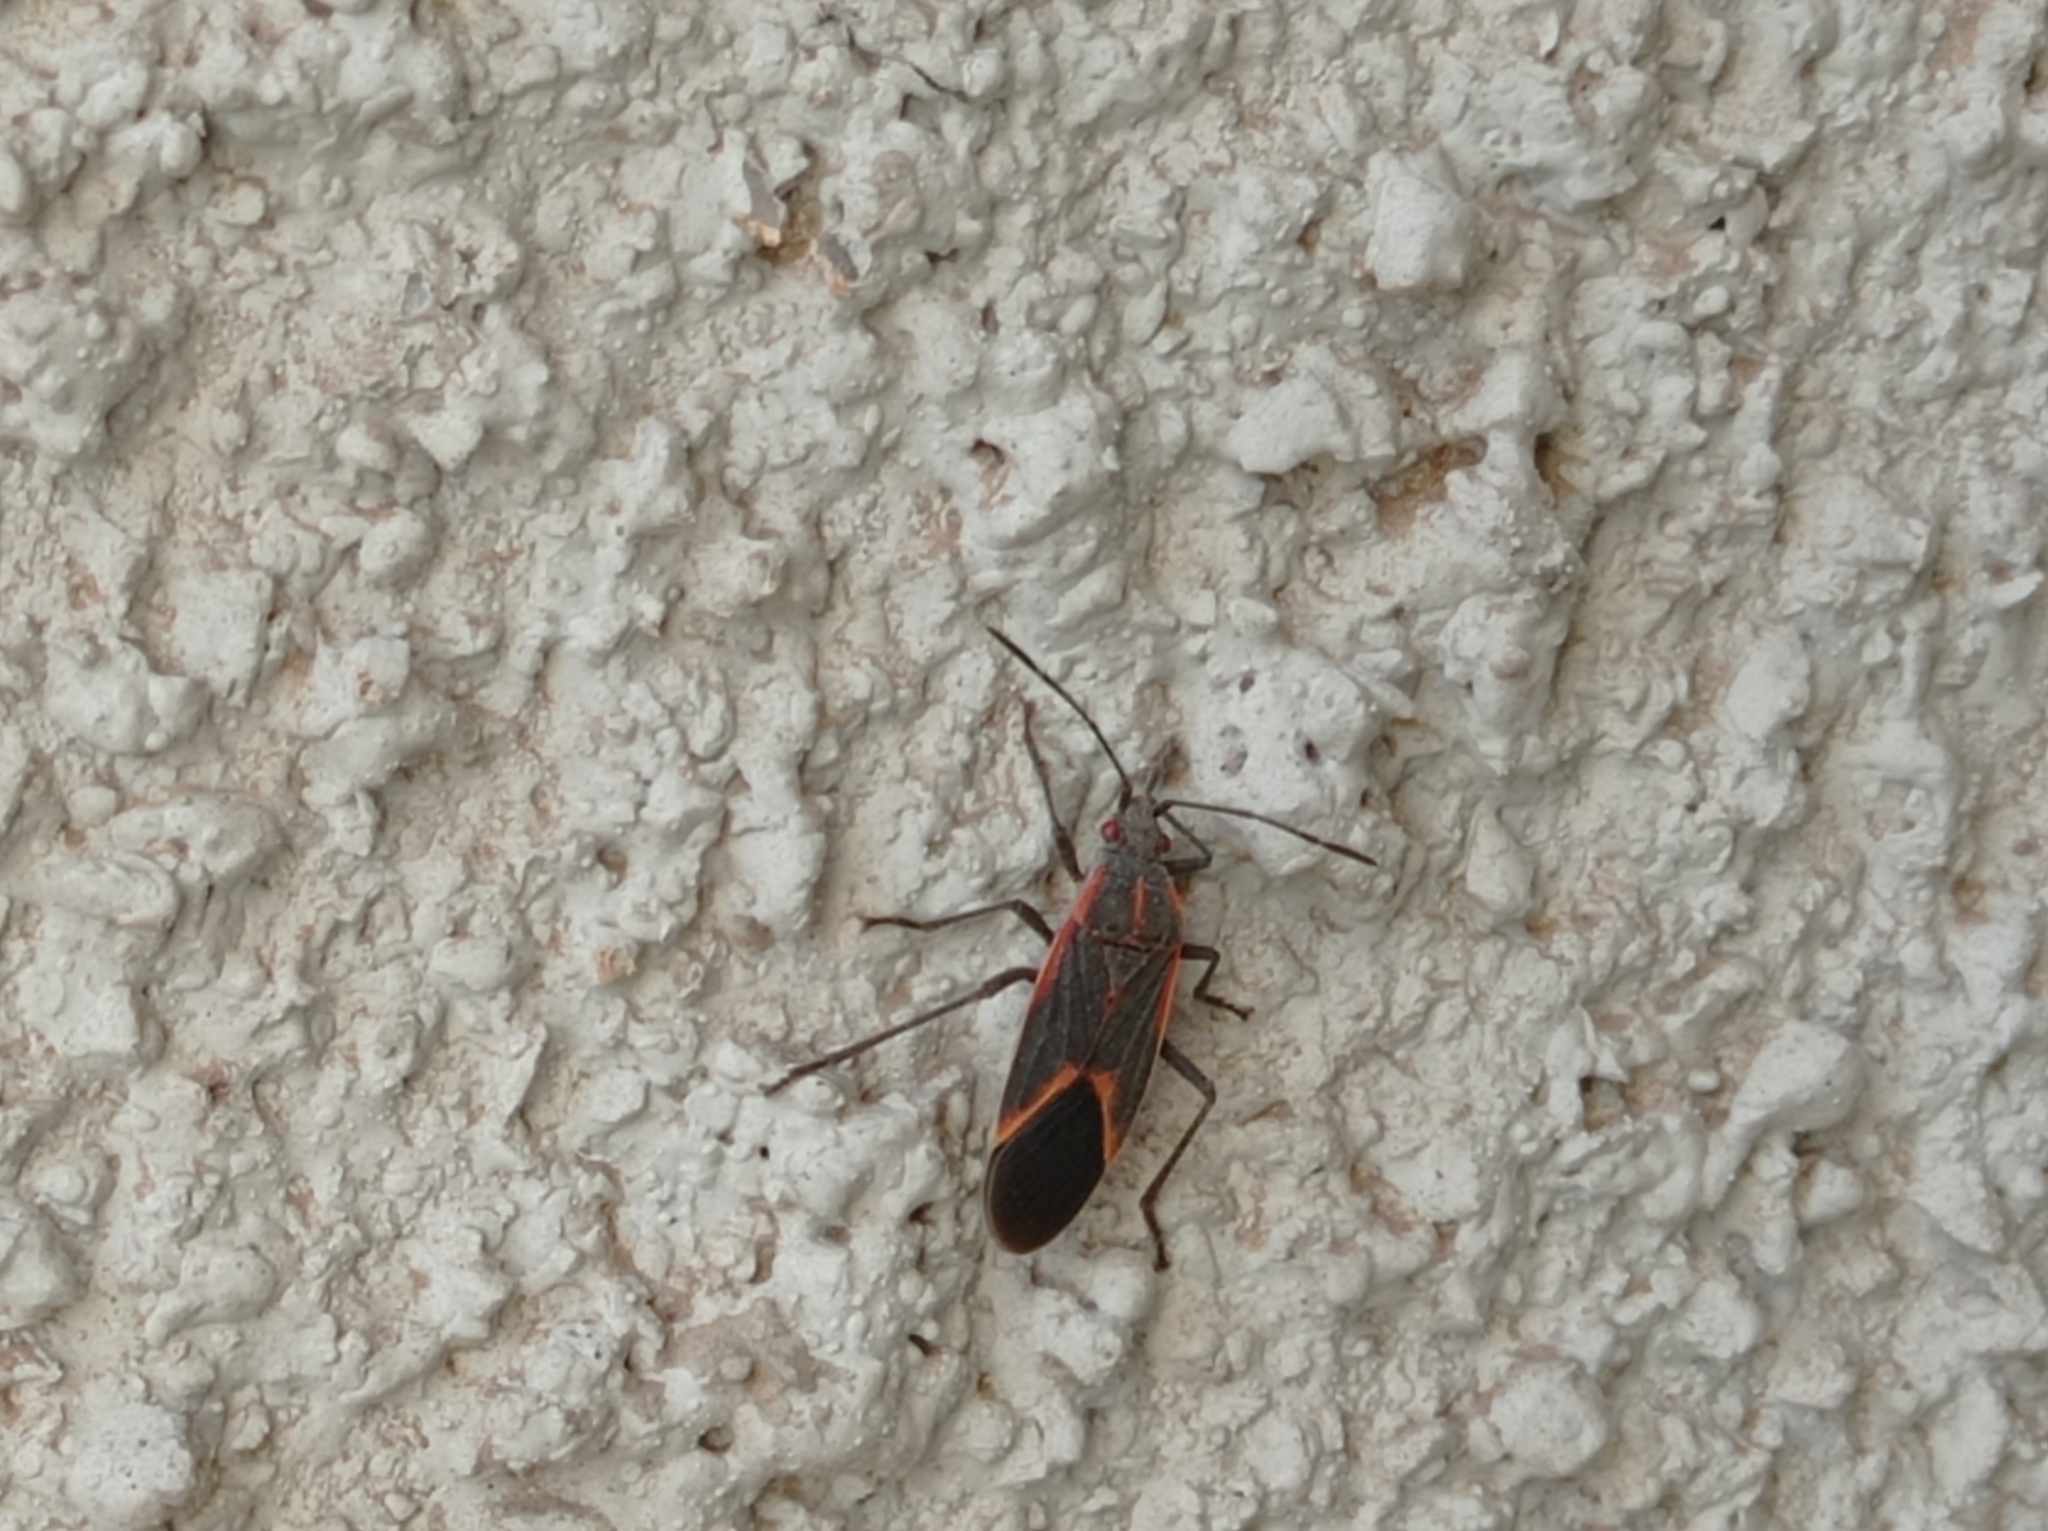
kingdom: Animalia
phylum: Arthropoda
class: Insecta
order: Hemiptera
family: Rhopalidae
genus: Boisea
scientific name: Boisea trivittata
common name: Boxelder bug
